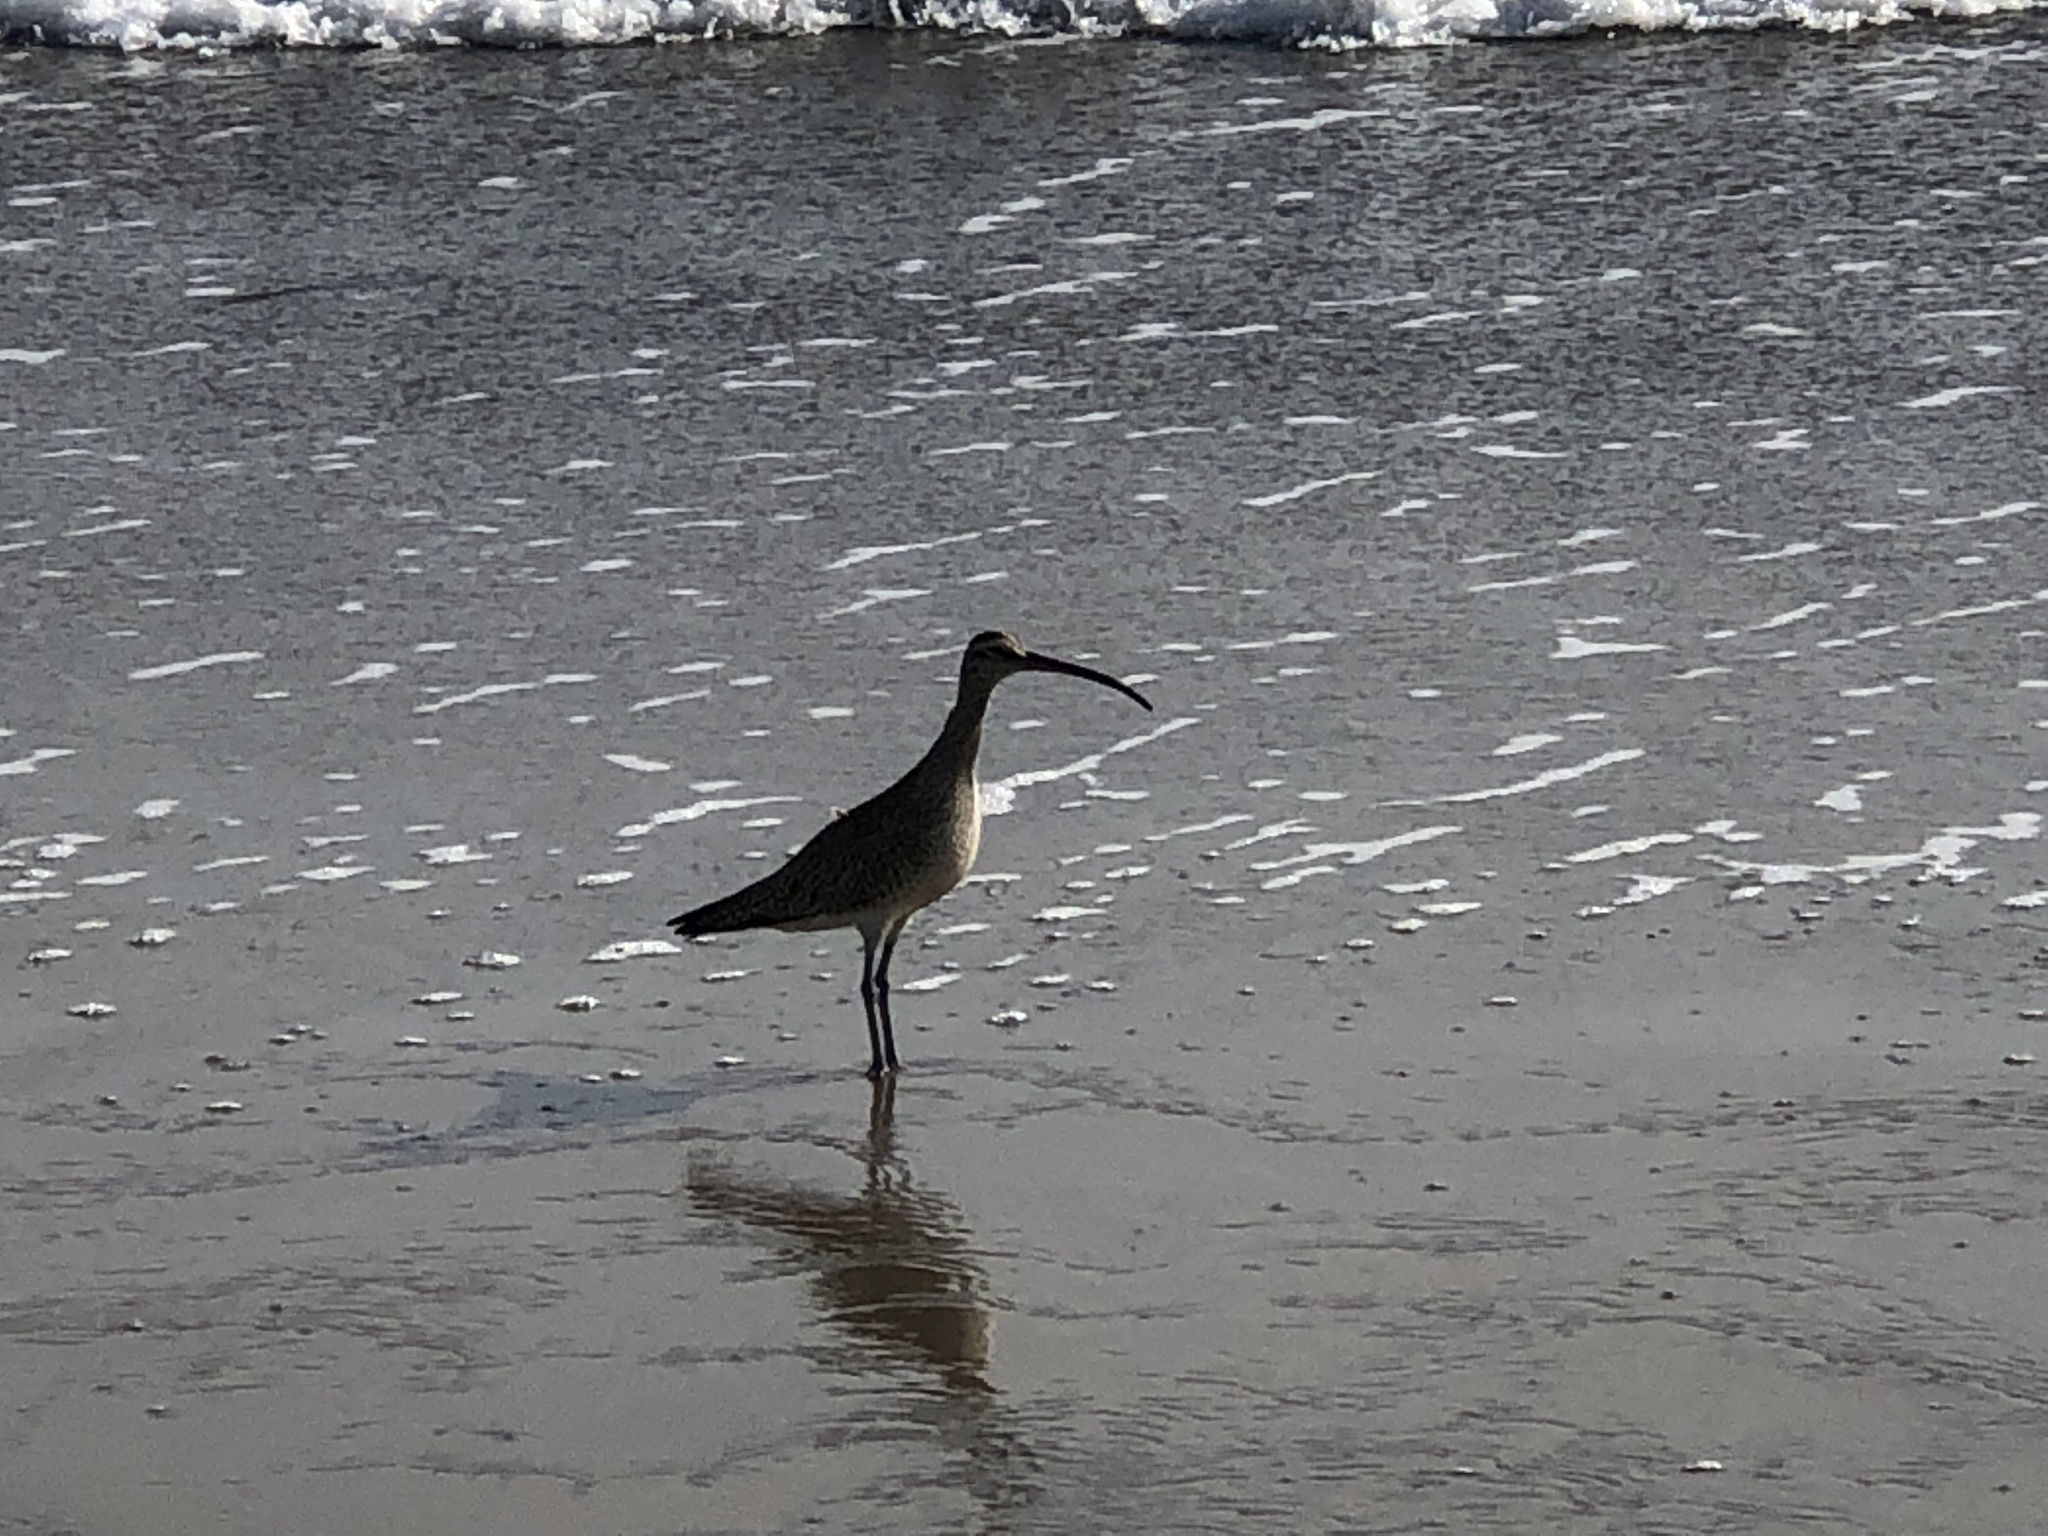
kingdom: Animalia
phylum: Chordata
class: Aves
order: Charadriiformes
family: Scolopacidae
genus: Numenius
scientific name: Numenius phaeopus
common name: Whimbrel
